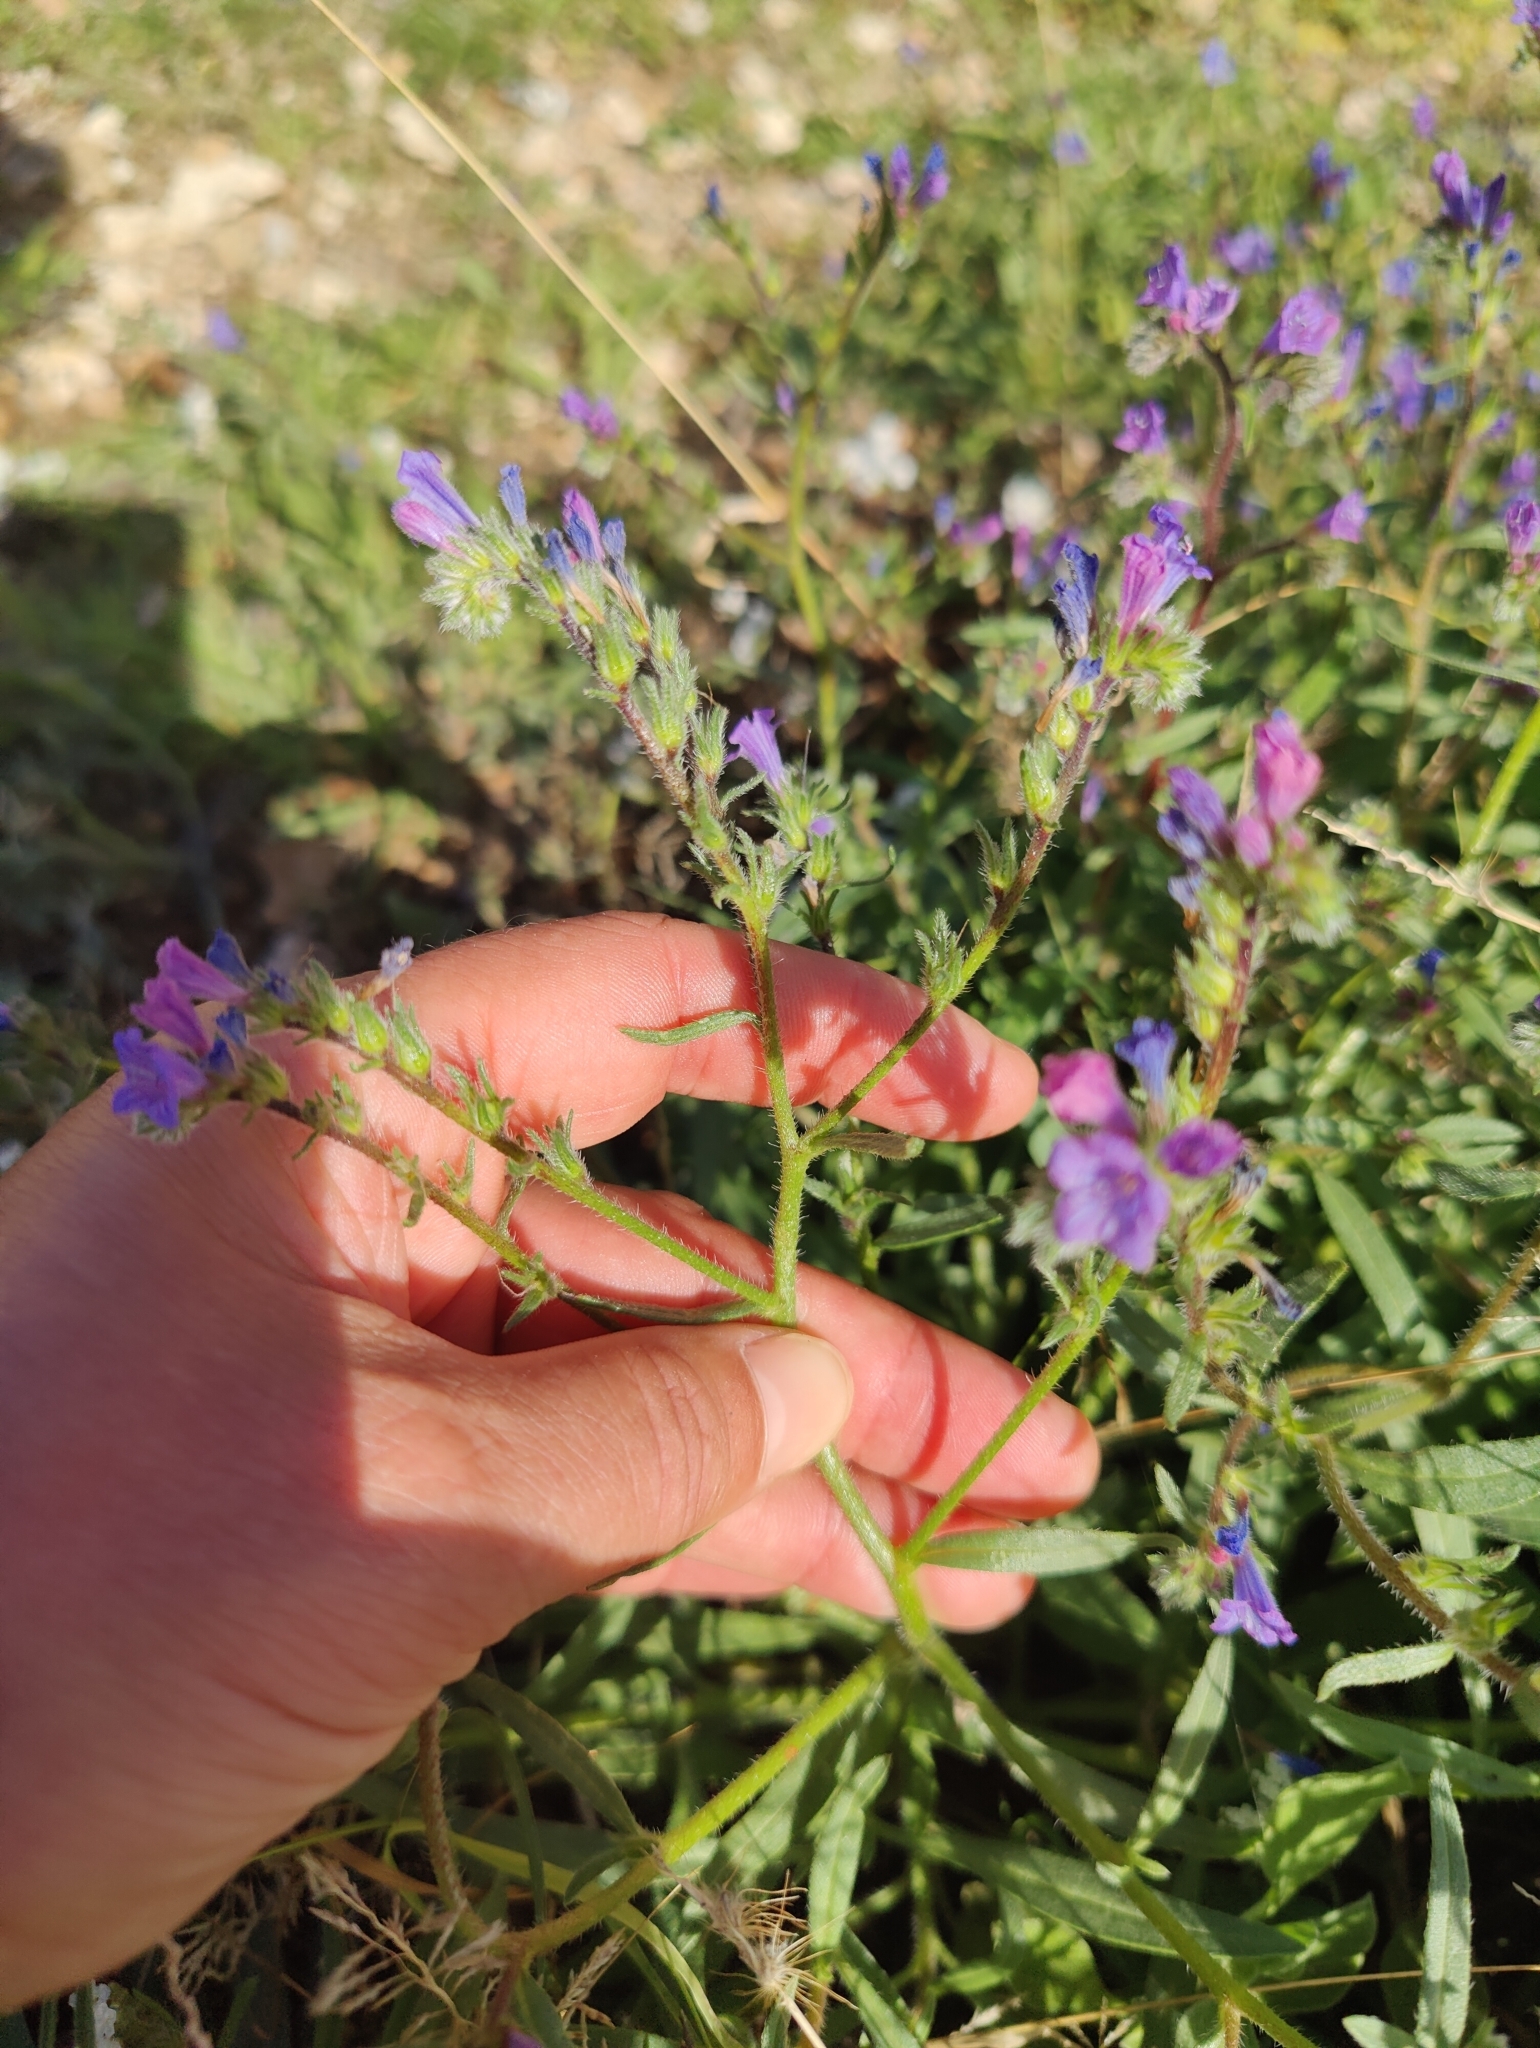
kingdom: Plantae
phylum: Tracheophyta
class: Magnoliopsida
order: Boraginales
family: Boraginaceae
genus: Echium
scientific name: Echium bonnetii
